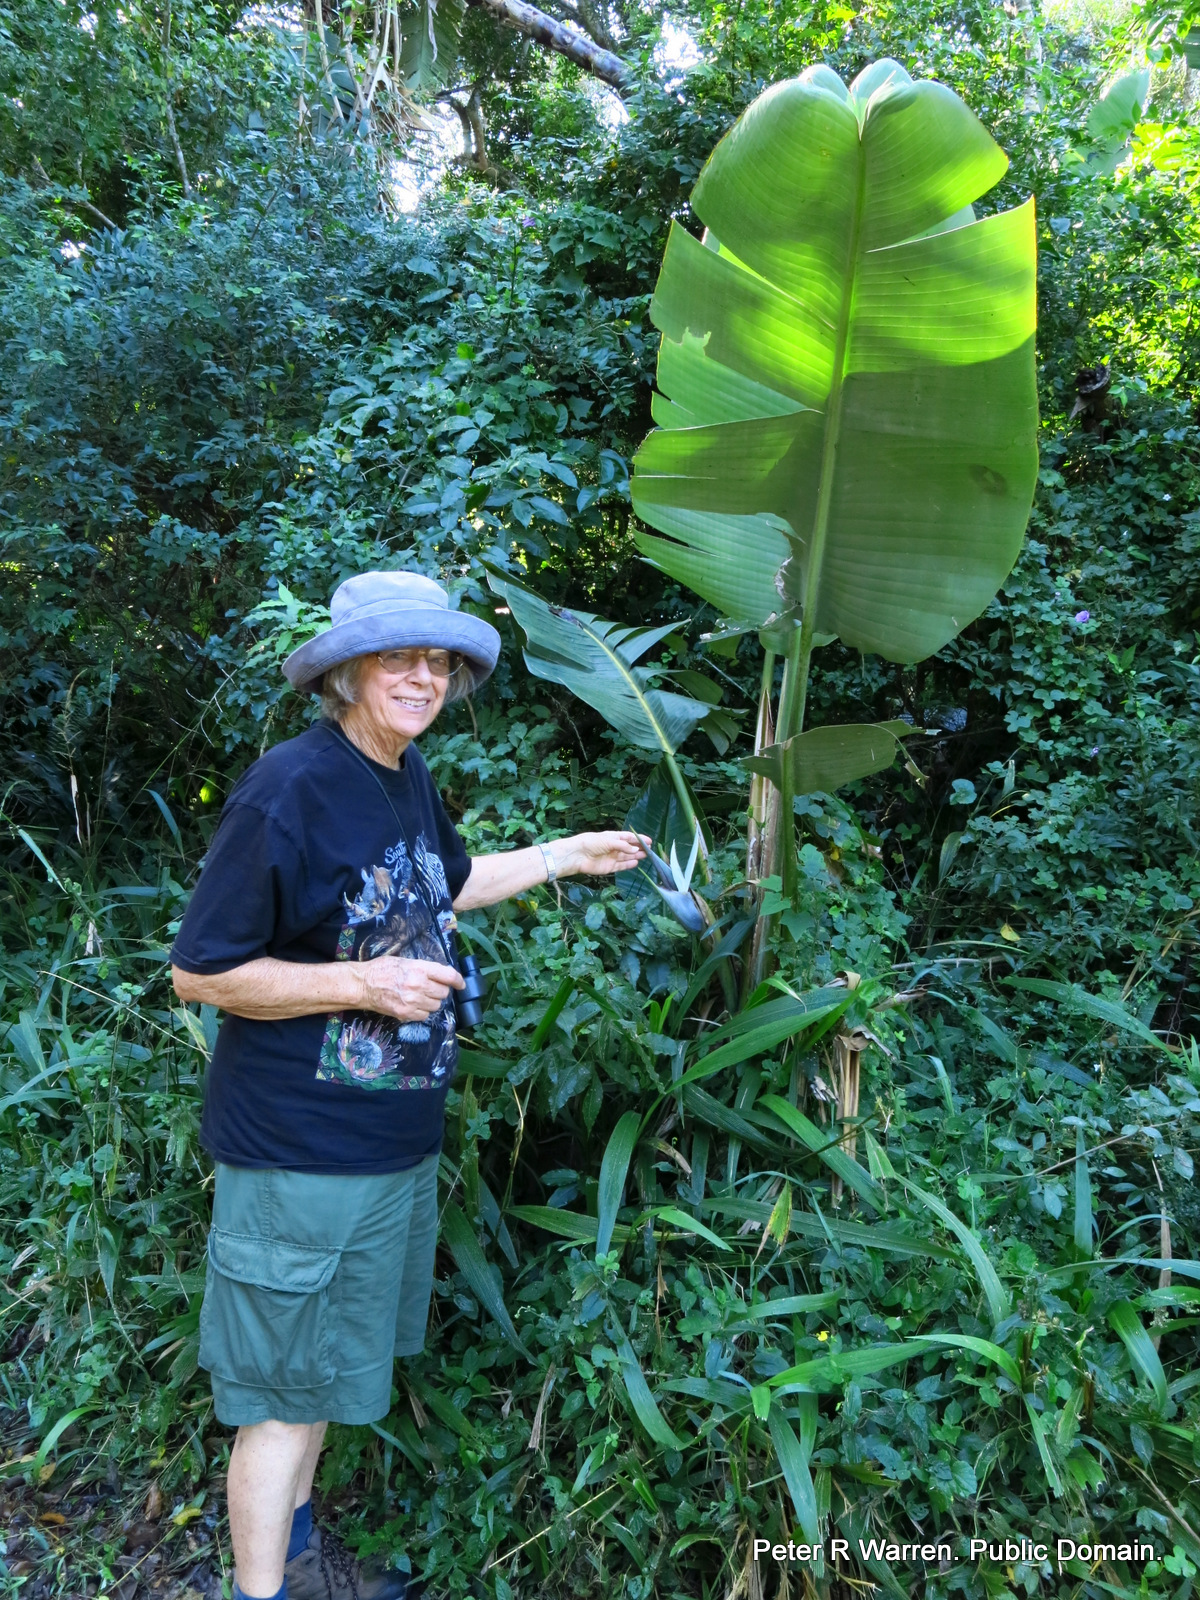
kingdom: Plantae
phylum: Tracheophyta
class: Liliopsida
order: Zingiberales
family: Strelitziaceae
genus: Strelitzia
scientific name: Strelitzia nicolai
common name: Bird-of-paradise tree
